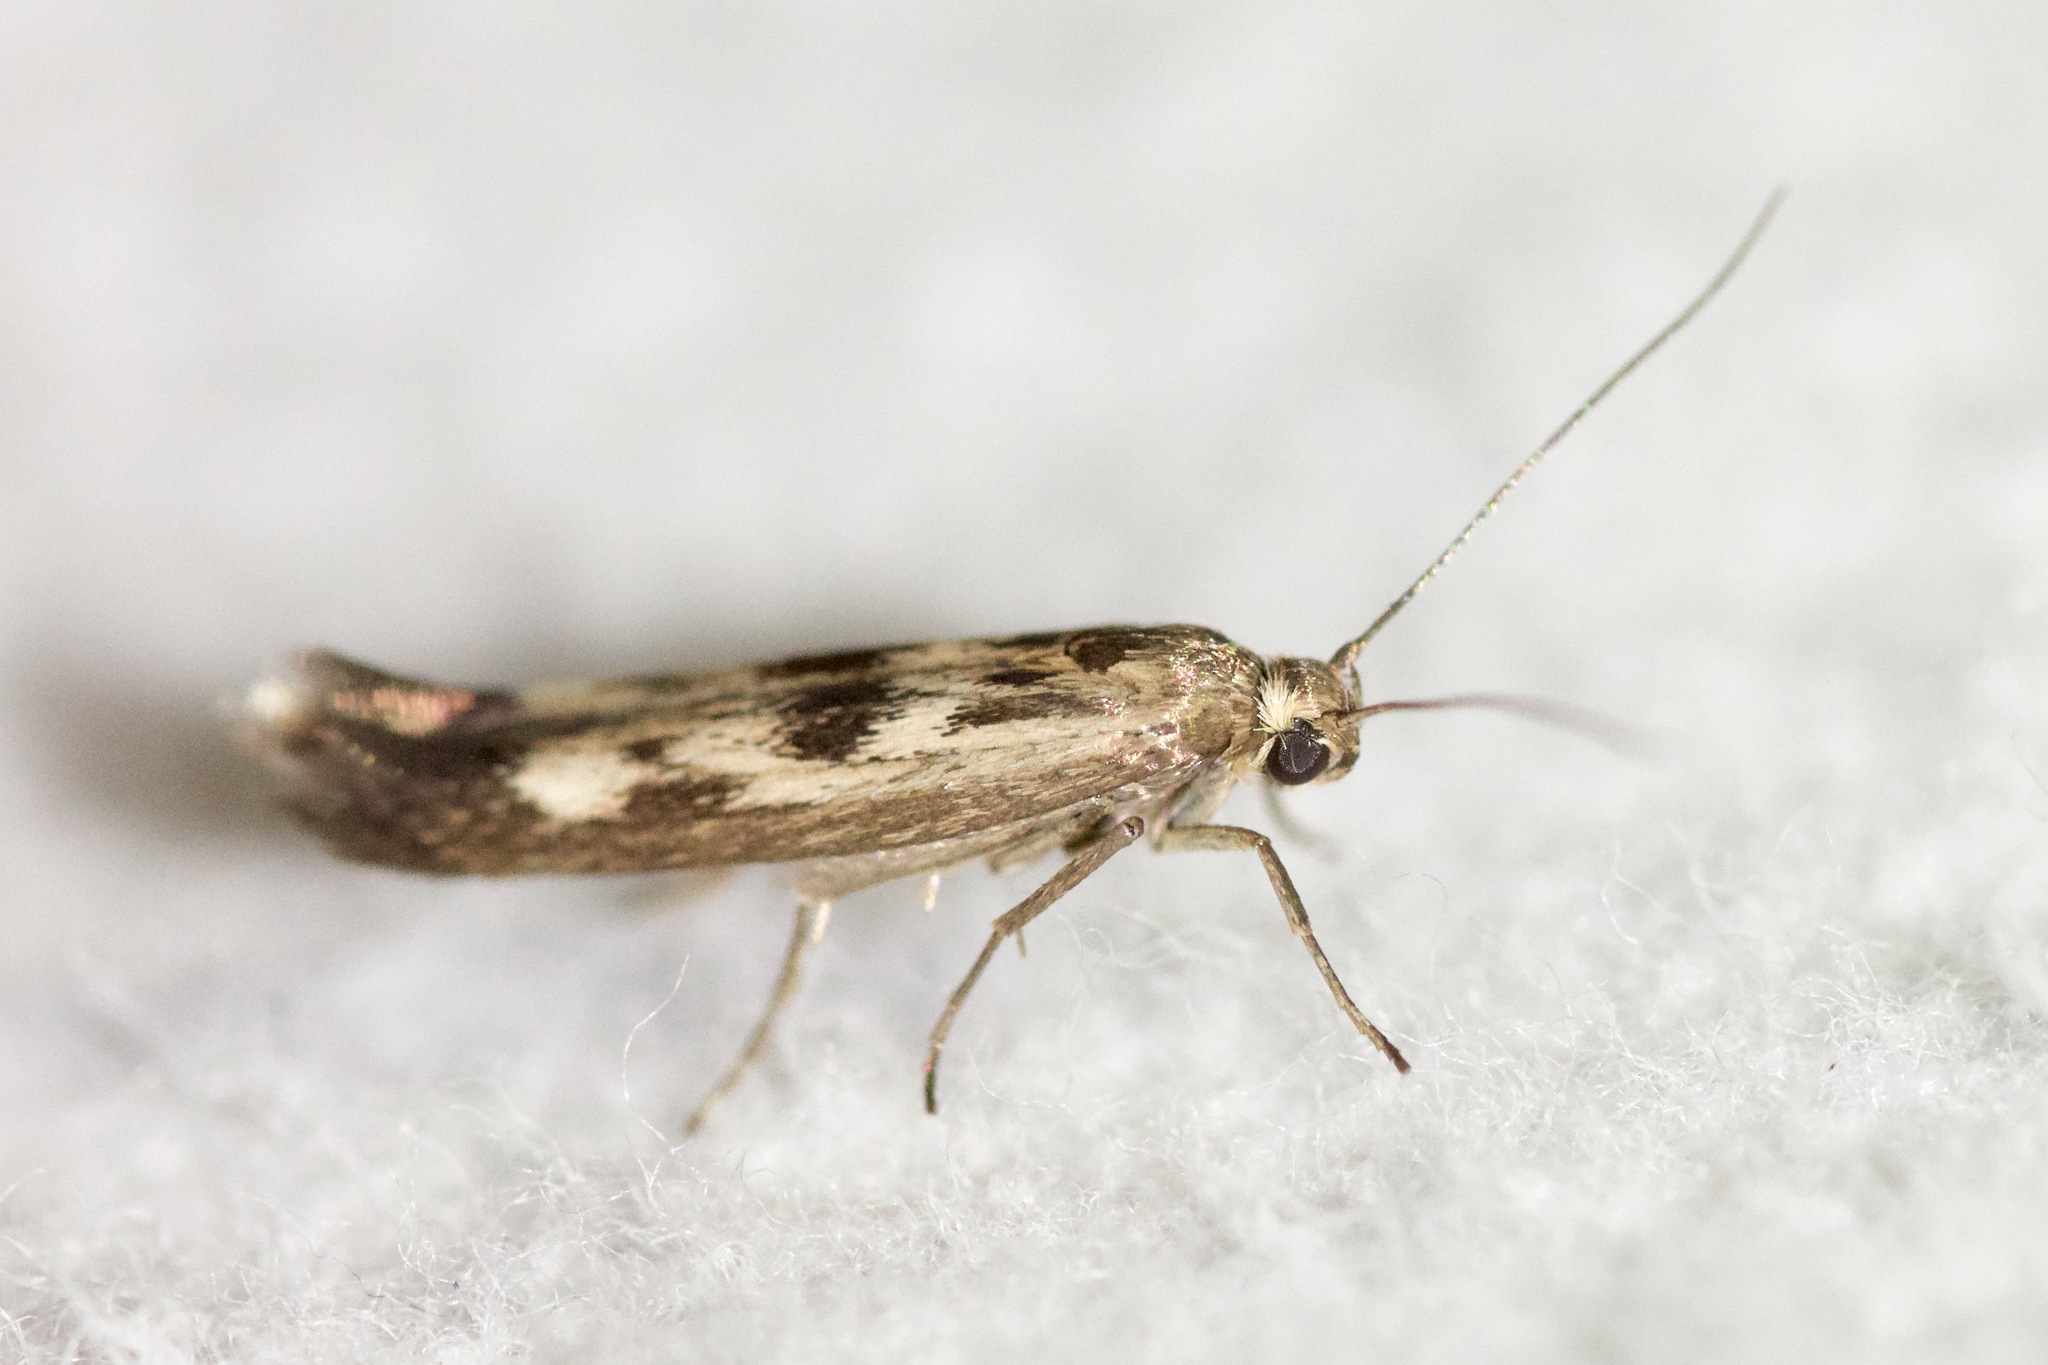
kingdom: Animalia
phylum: Arthropoda
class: Insecta
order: Lepidoptera
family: Scythrididae
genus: Scythris
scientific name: Scythris limbella
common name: Goosefoot owlet
